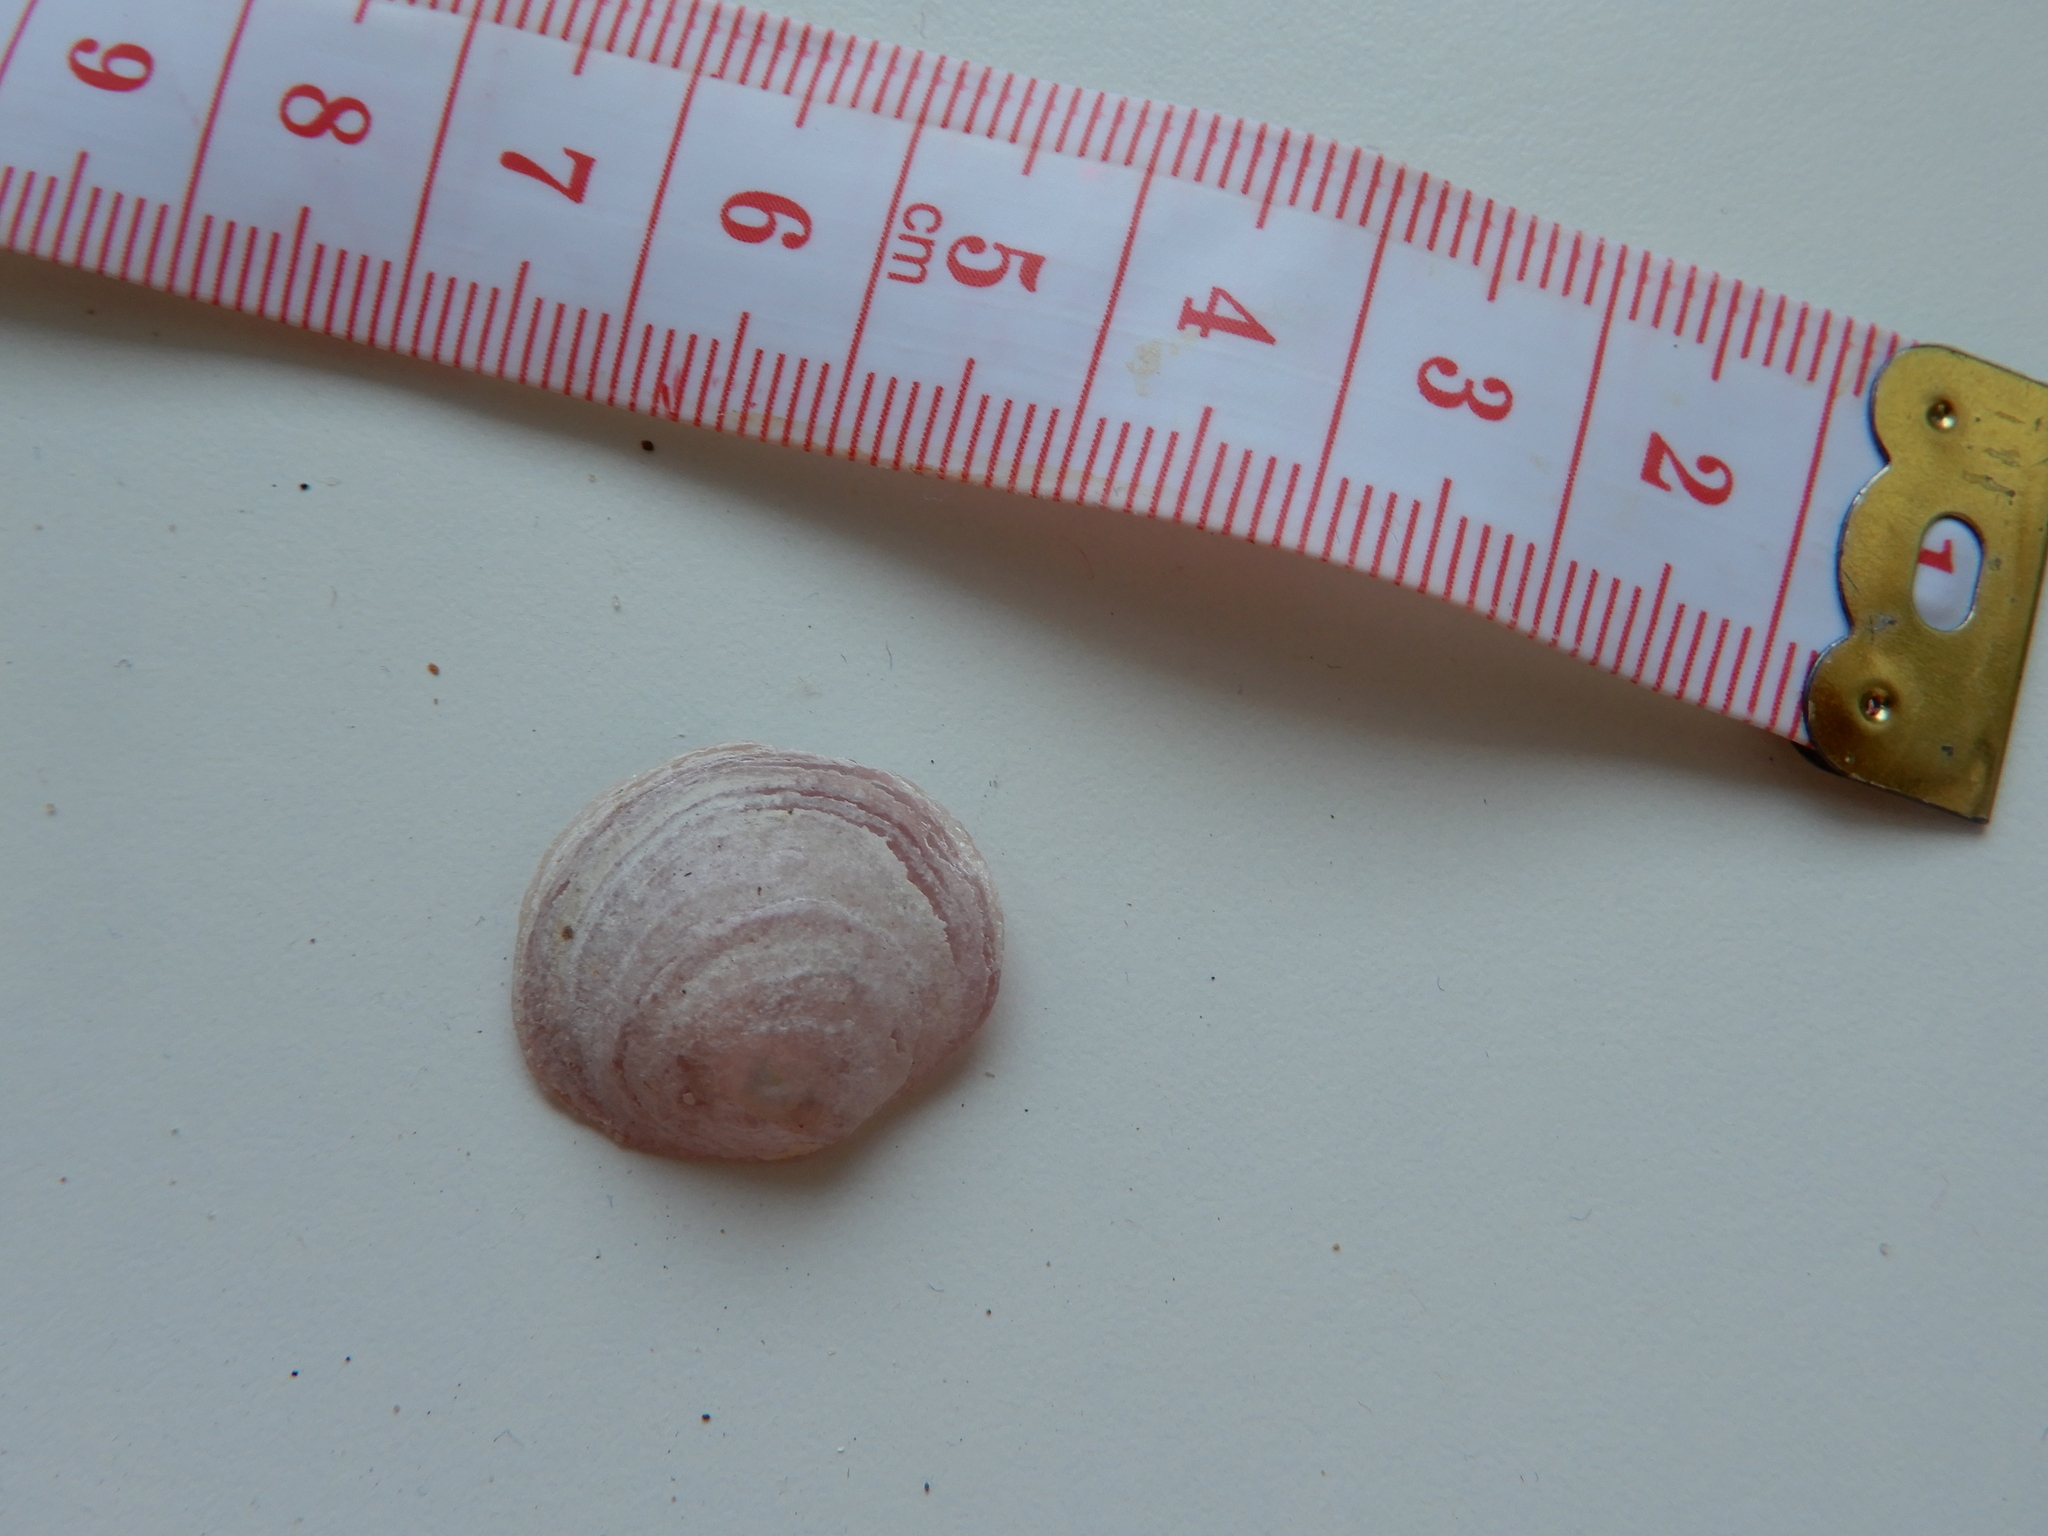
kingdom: Animalia
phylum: Mollusca
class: Bivalvia
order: Pectinida
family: Anomiidae
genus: Anomia
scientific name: Anomia ephippium
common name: Saddle oyster
